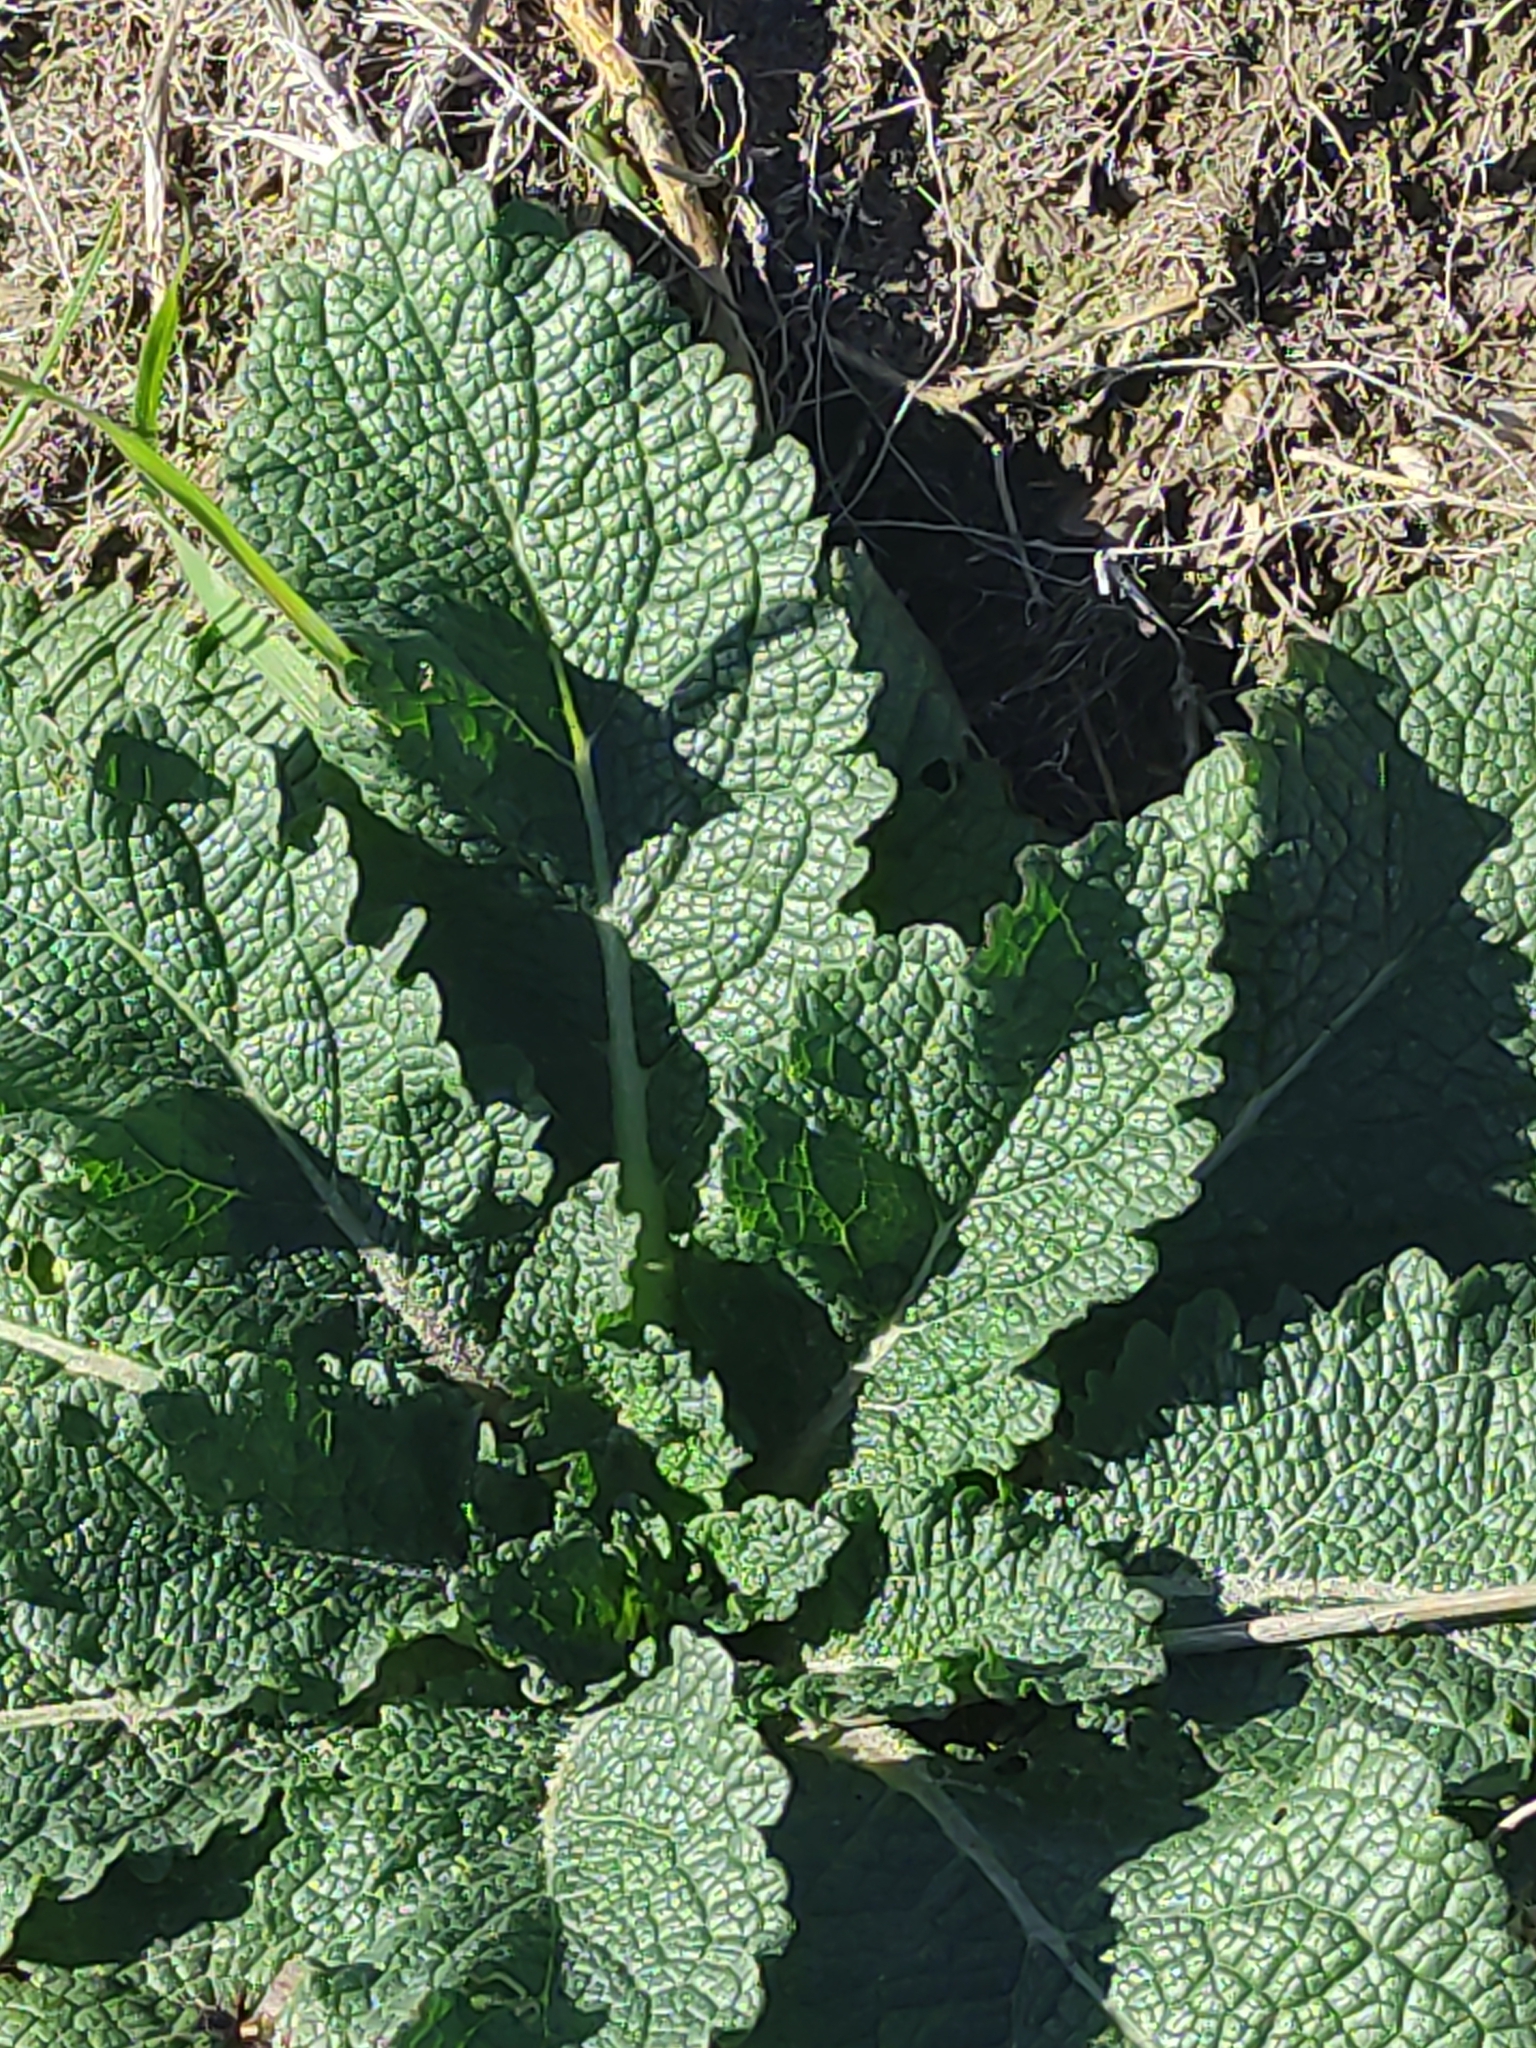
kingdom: Plantae
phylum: Tracheophyta
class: Magnoliopsida
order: Lamiales
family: Scrophulariaceae
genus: Verbascum
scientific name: Verbascum virgatum
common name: Twiggy mullein
